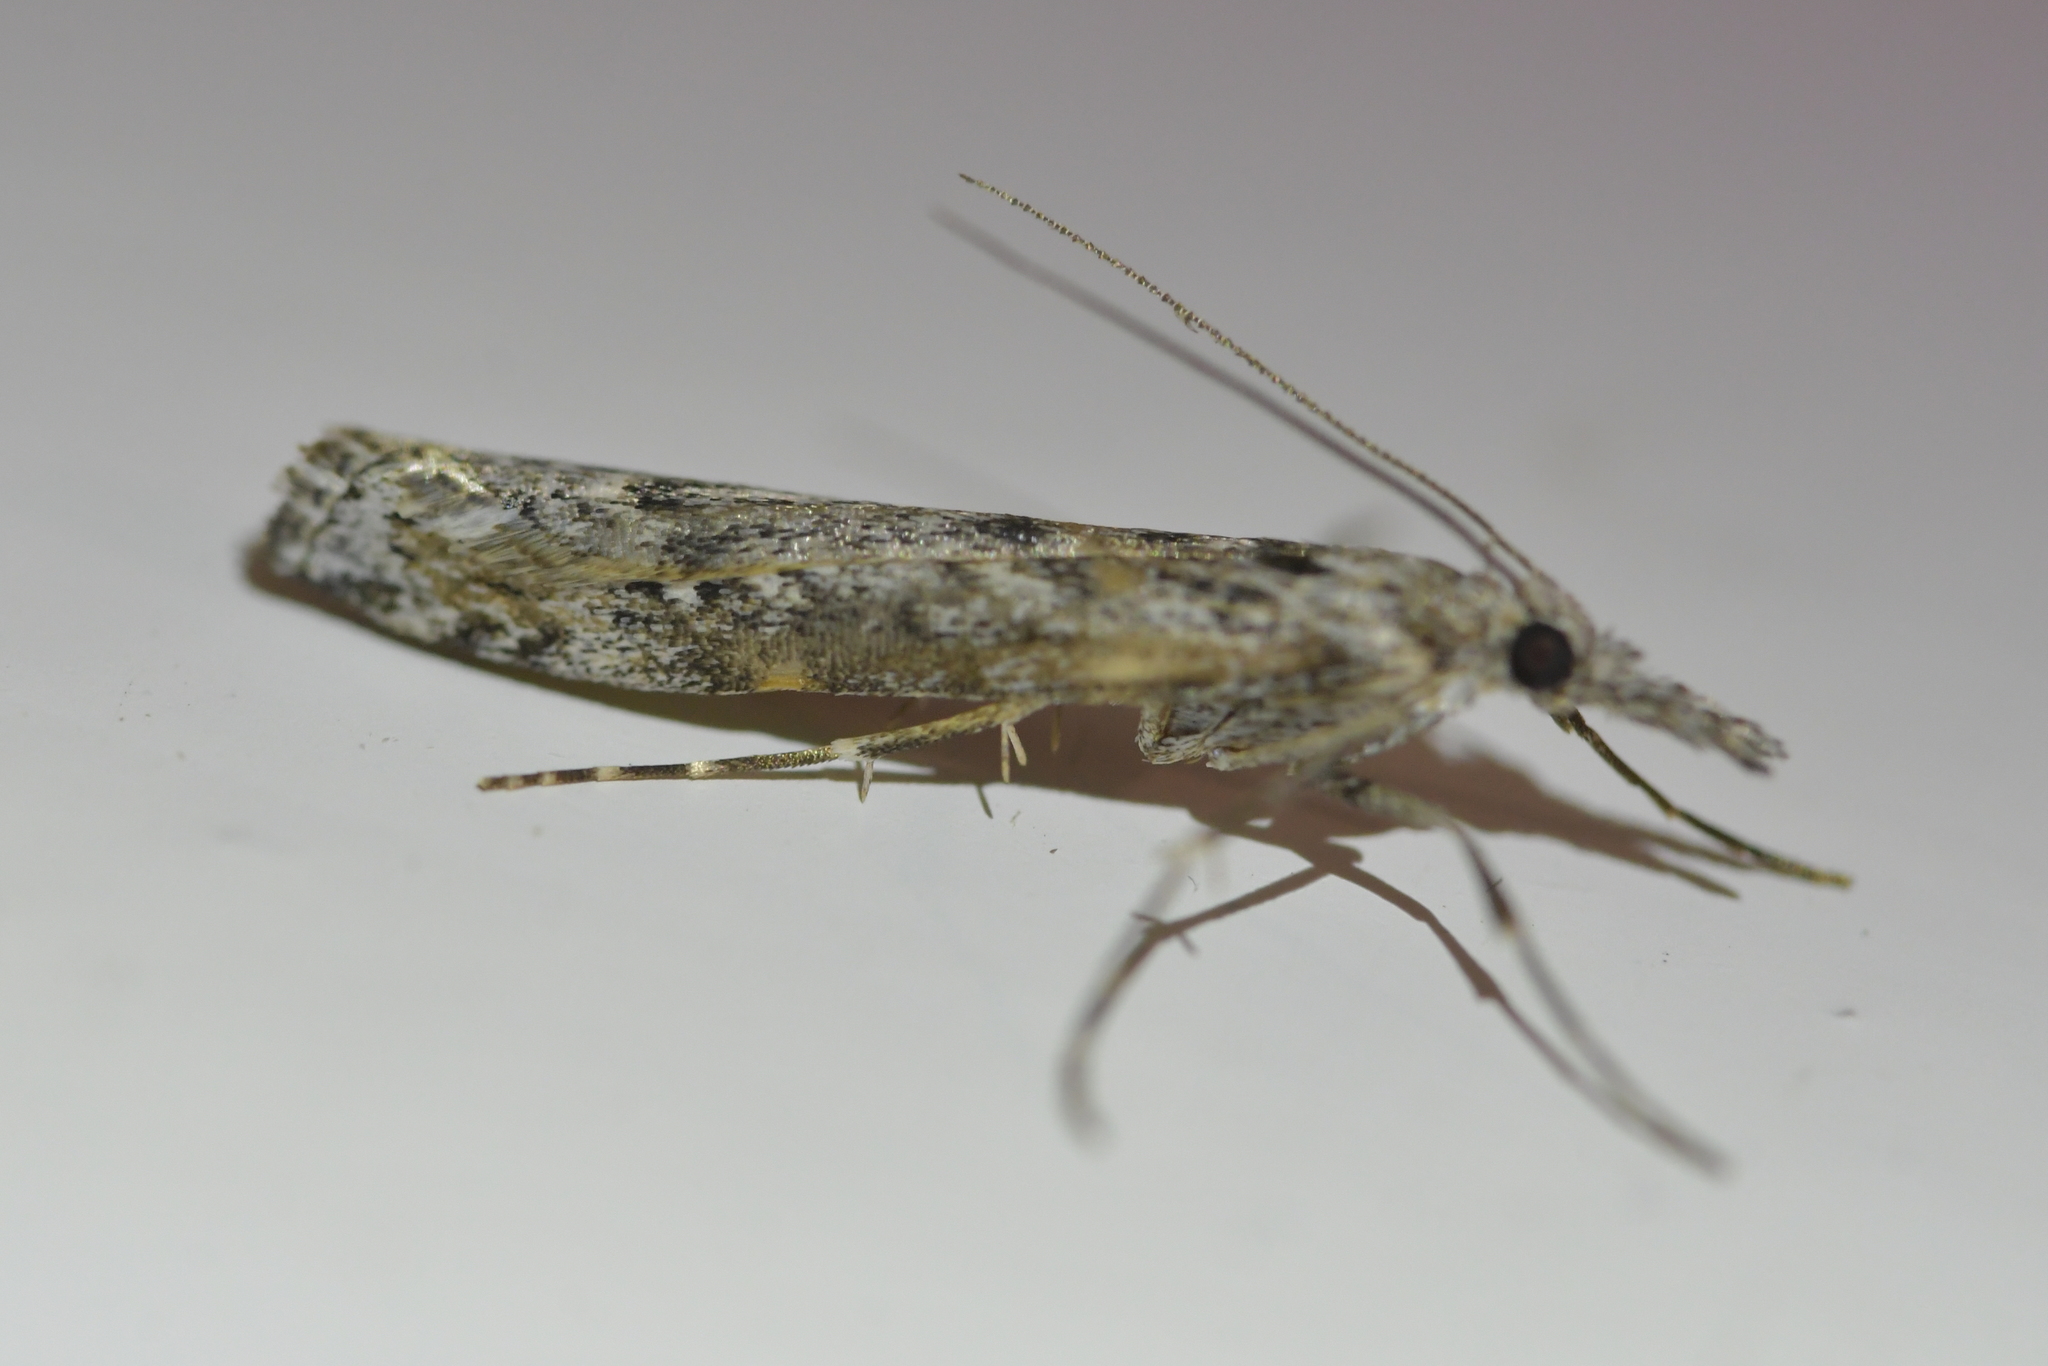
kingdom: Animalia
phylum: Arthropoda
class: Insecta
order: Lepidoptera
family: Crambidae
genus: Orocrambus
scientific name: Orocrambus cyclopicus
